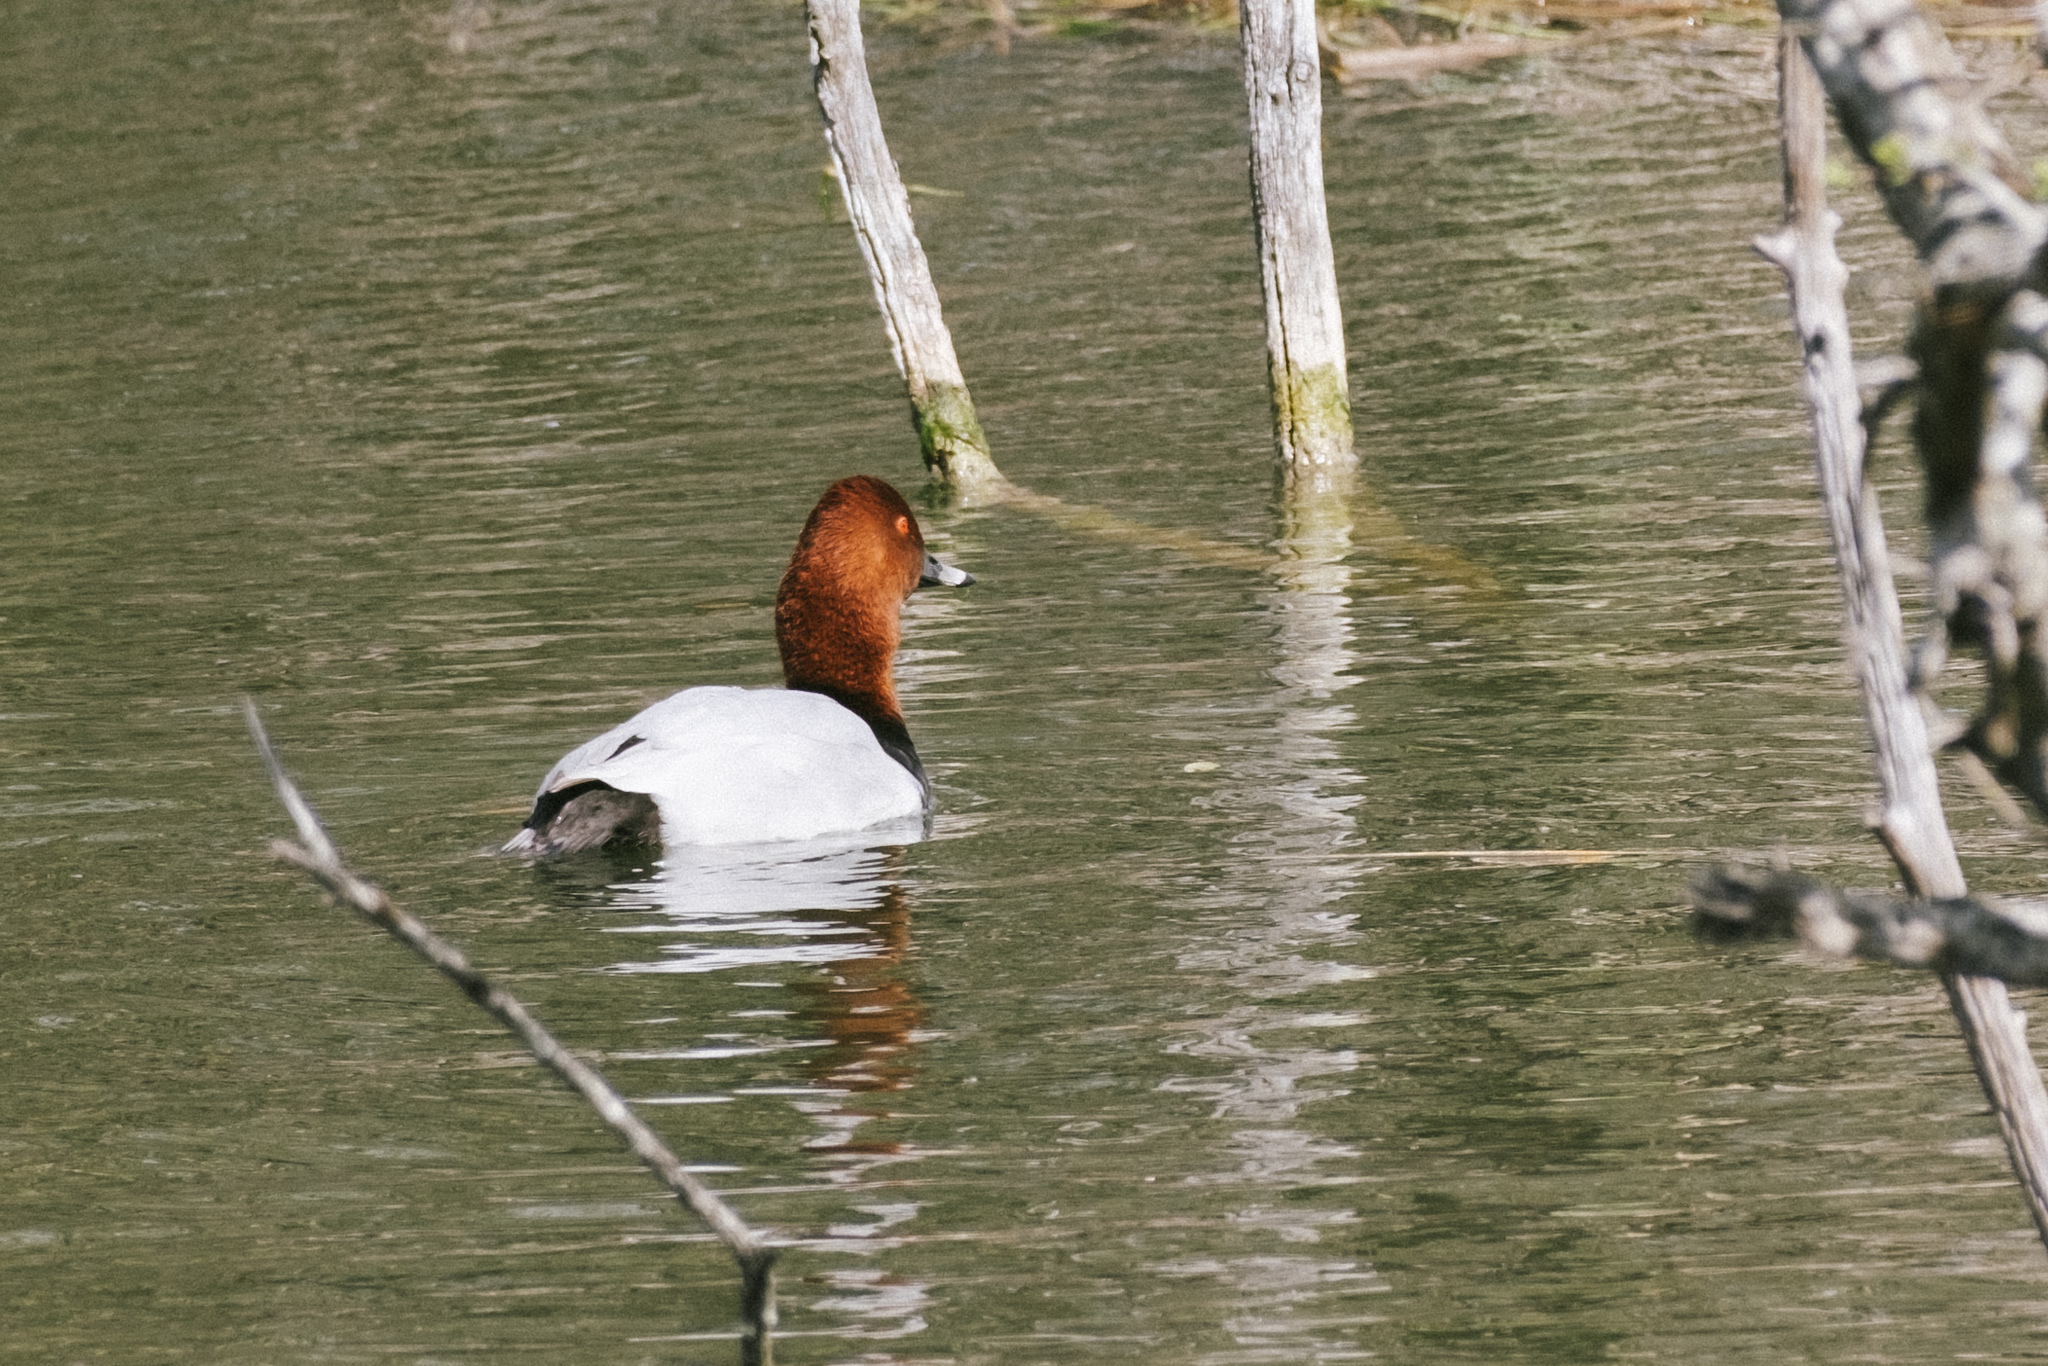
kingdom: Animalia
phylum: Chordata
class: Aves
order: Anseriformes
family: Anatidae
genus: Aythya
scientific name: Aythya ferina
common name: Common pochard
